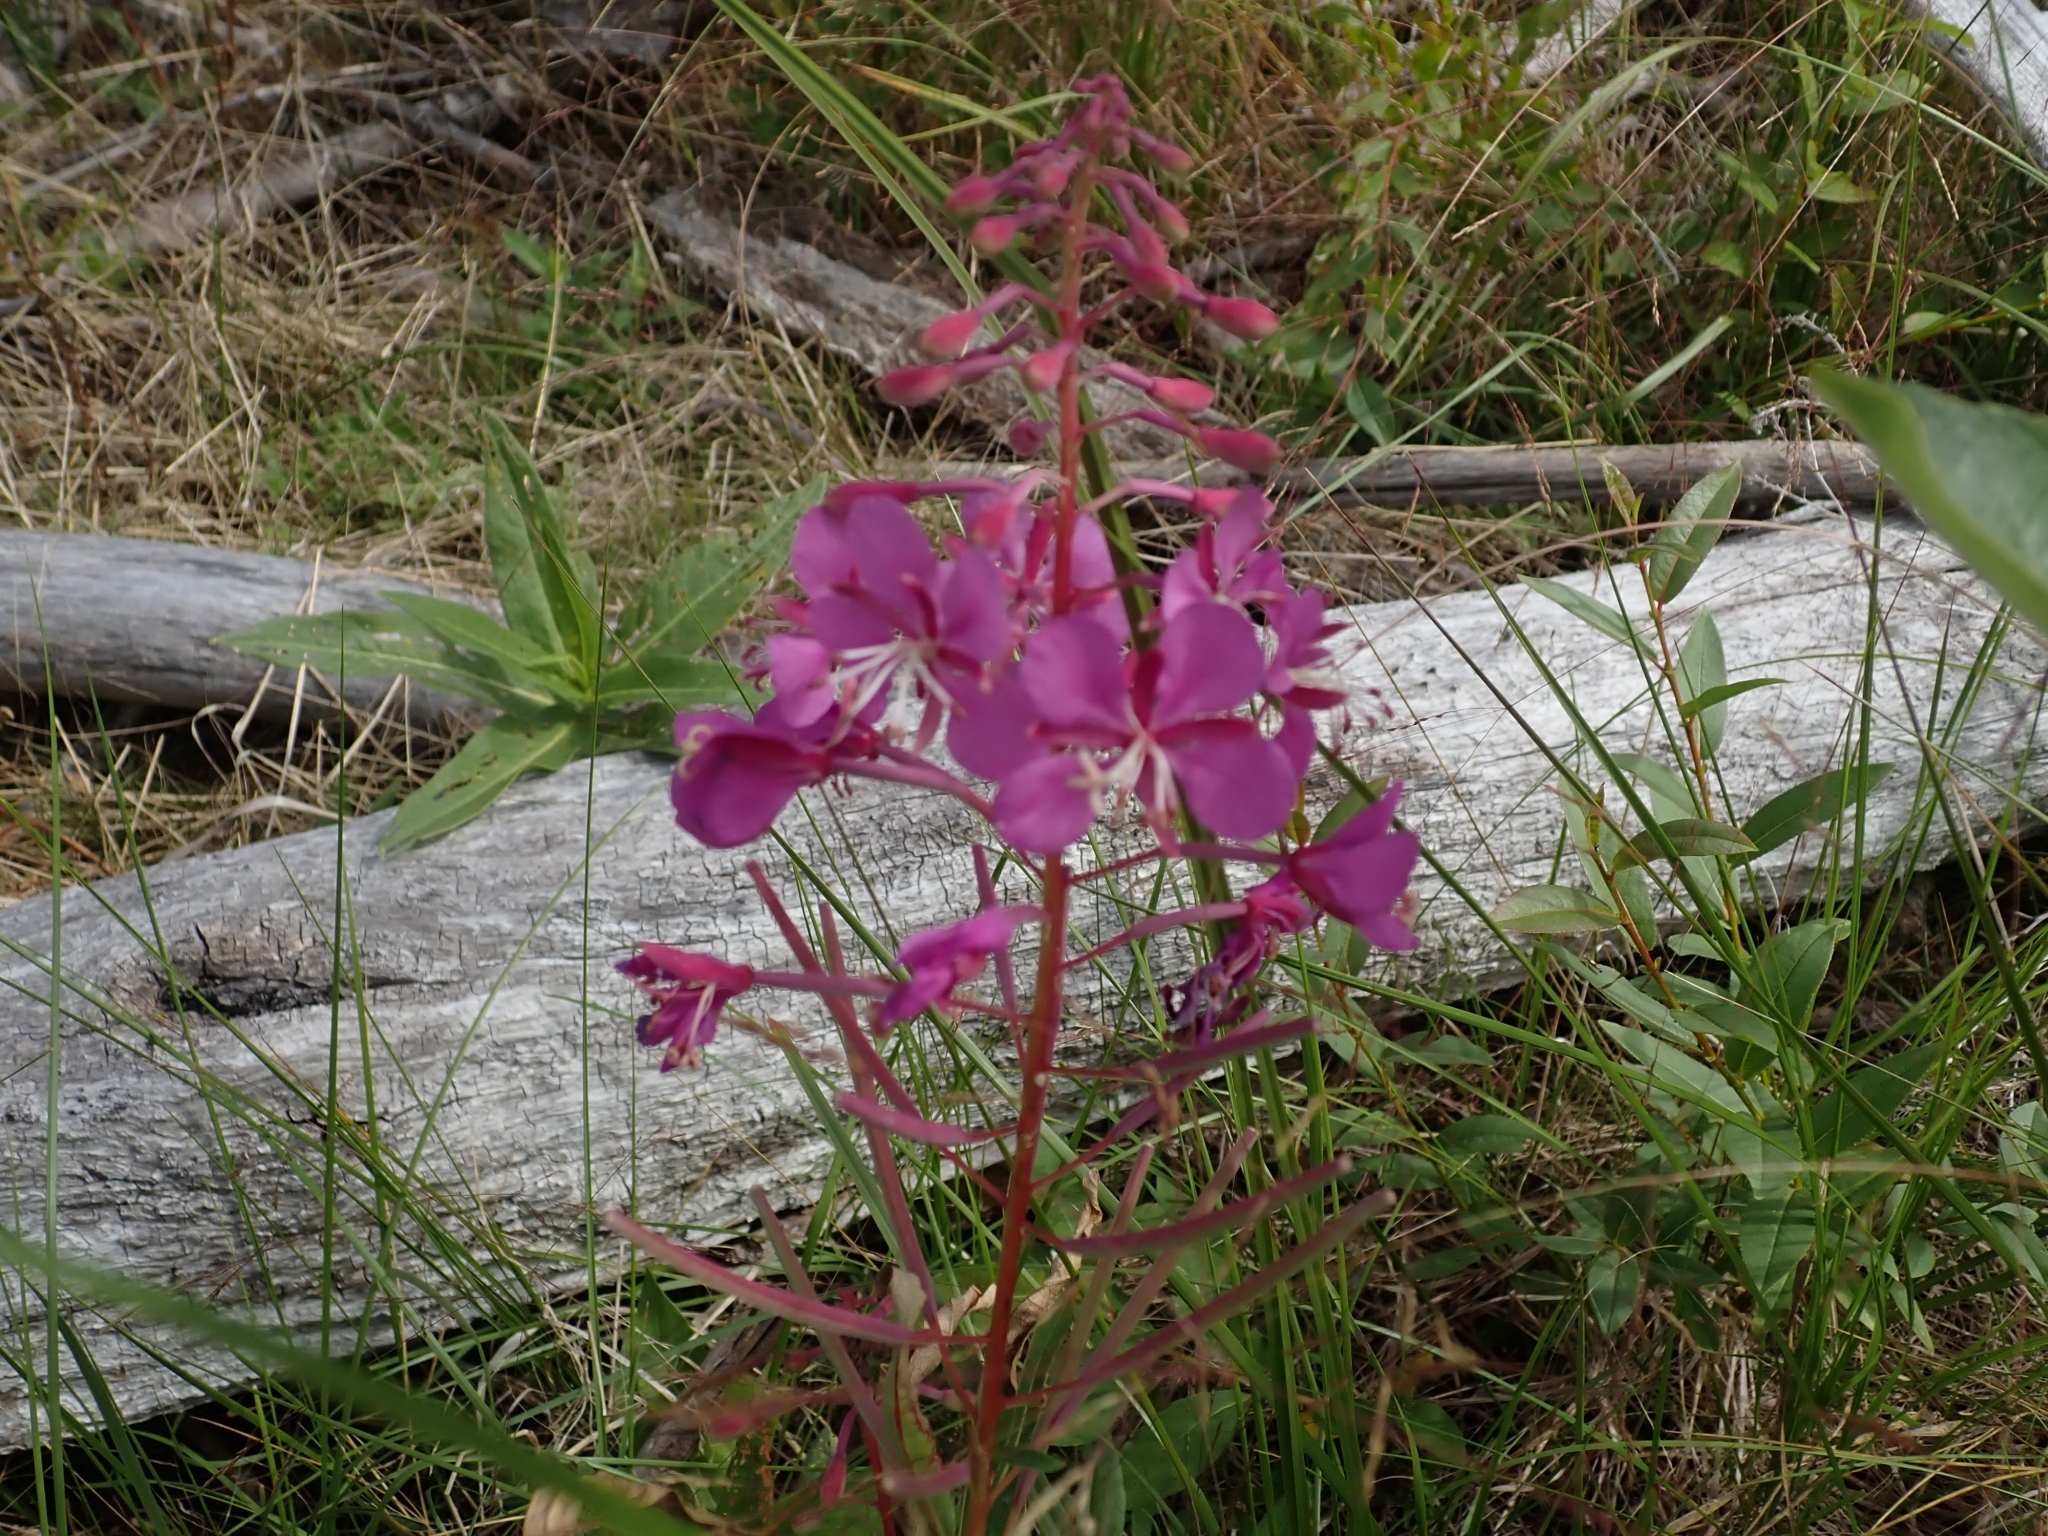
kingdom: Plantae
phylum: Tracheophyta
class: Magnoliopsida
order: Myrtales
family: Onagraceae
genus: Chamaenerion
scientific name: Chamaenerion angustifolium
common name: Fireweed
